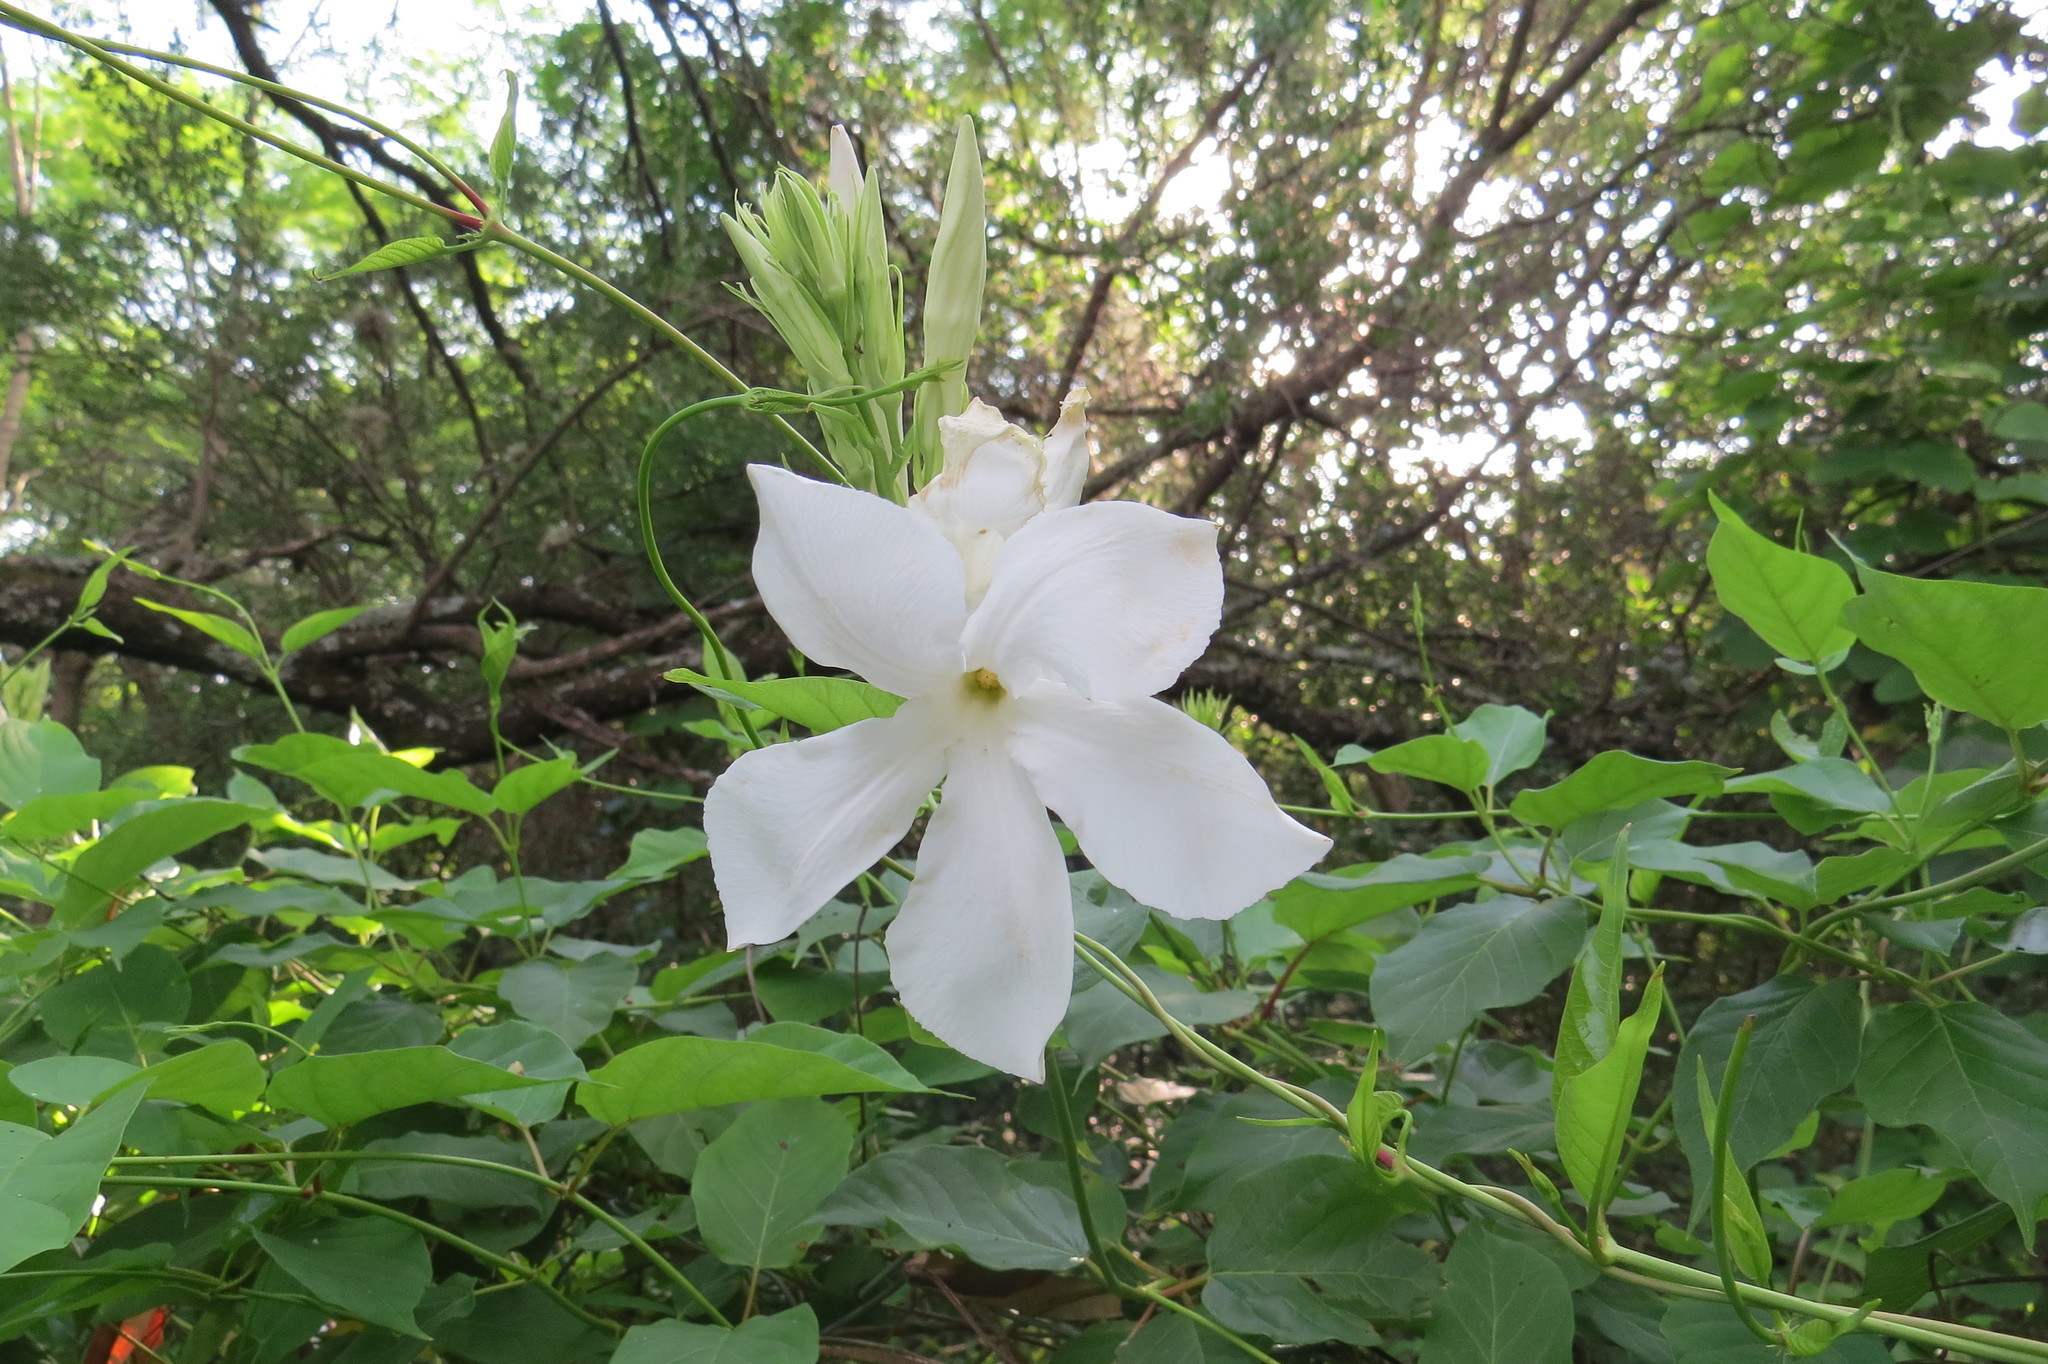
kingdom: Plantae
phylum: Tracheophyta
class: Magnoliopsida
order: Gentianales
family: Apocynaceae
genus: Mandevilla
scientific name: Mandevilla laxa
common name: Chilean-jasmine
